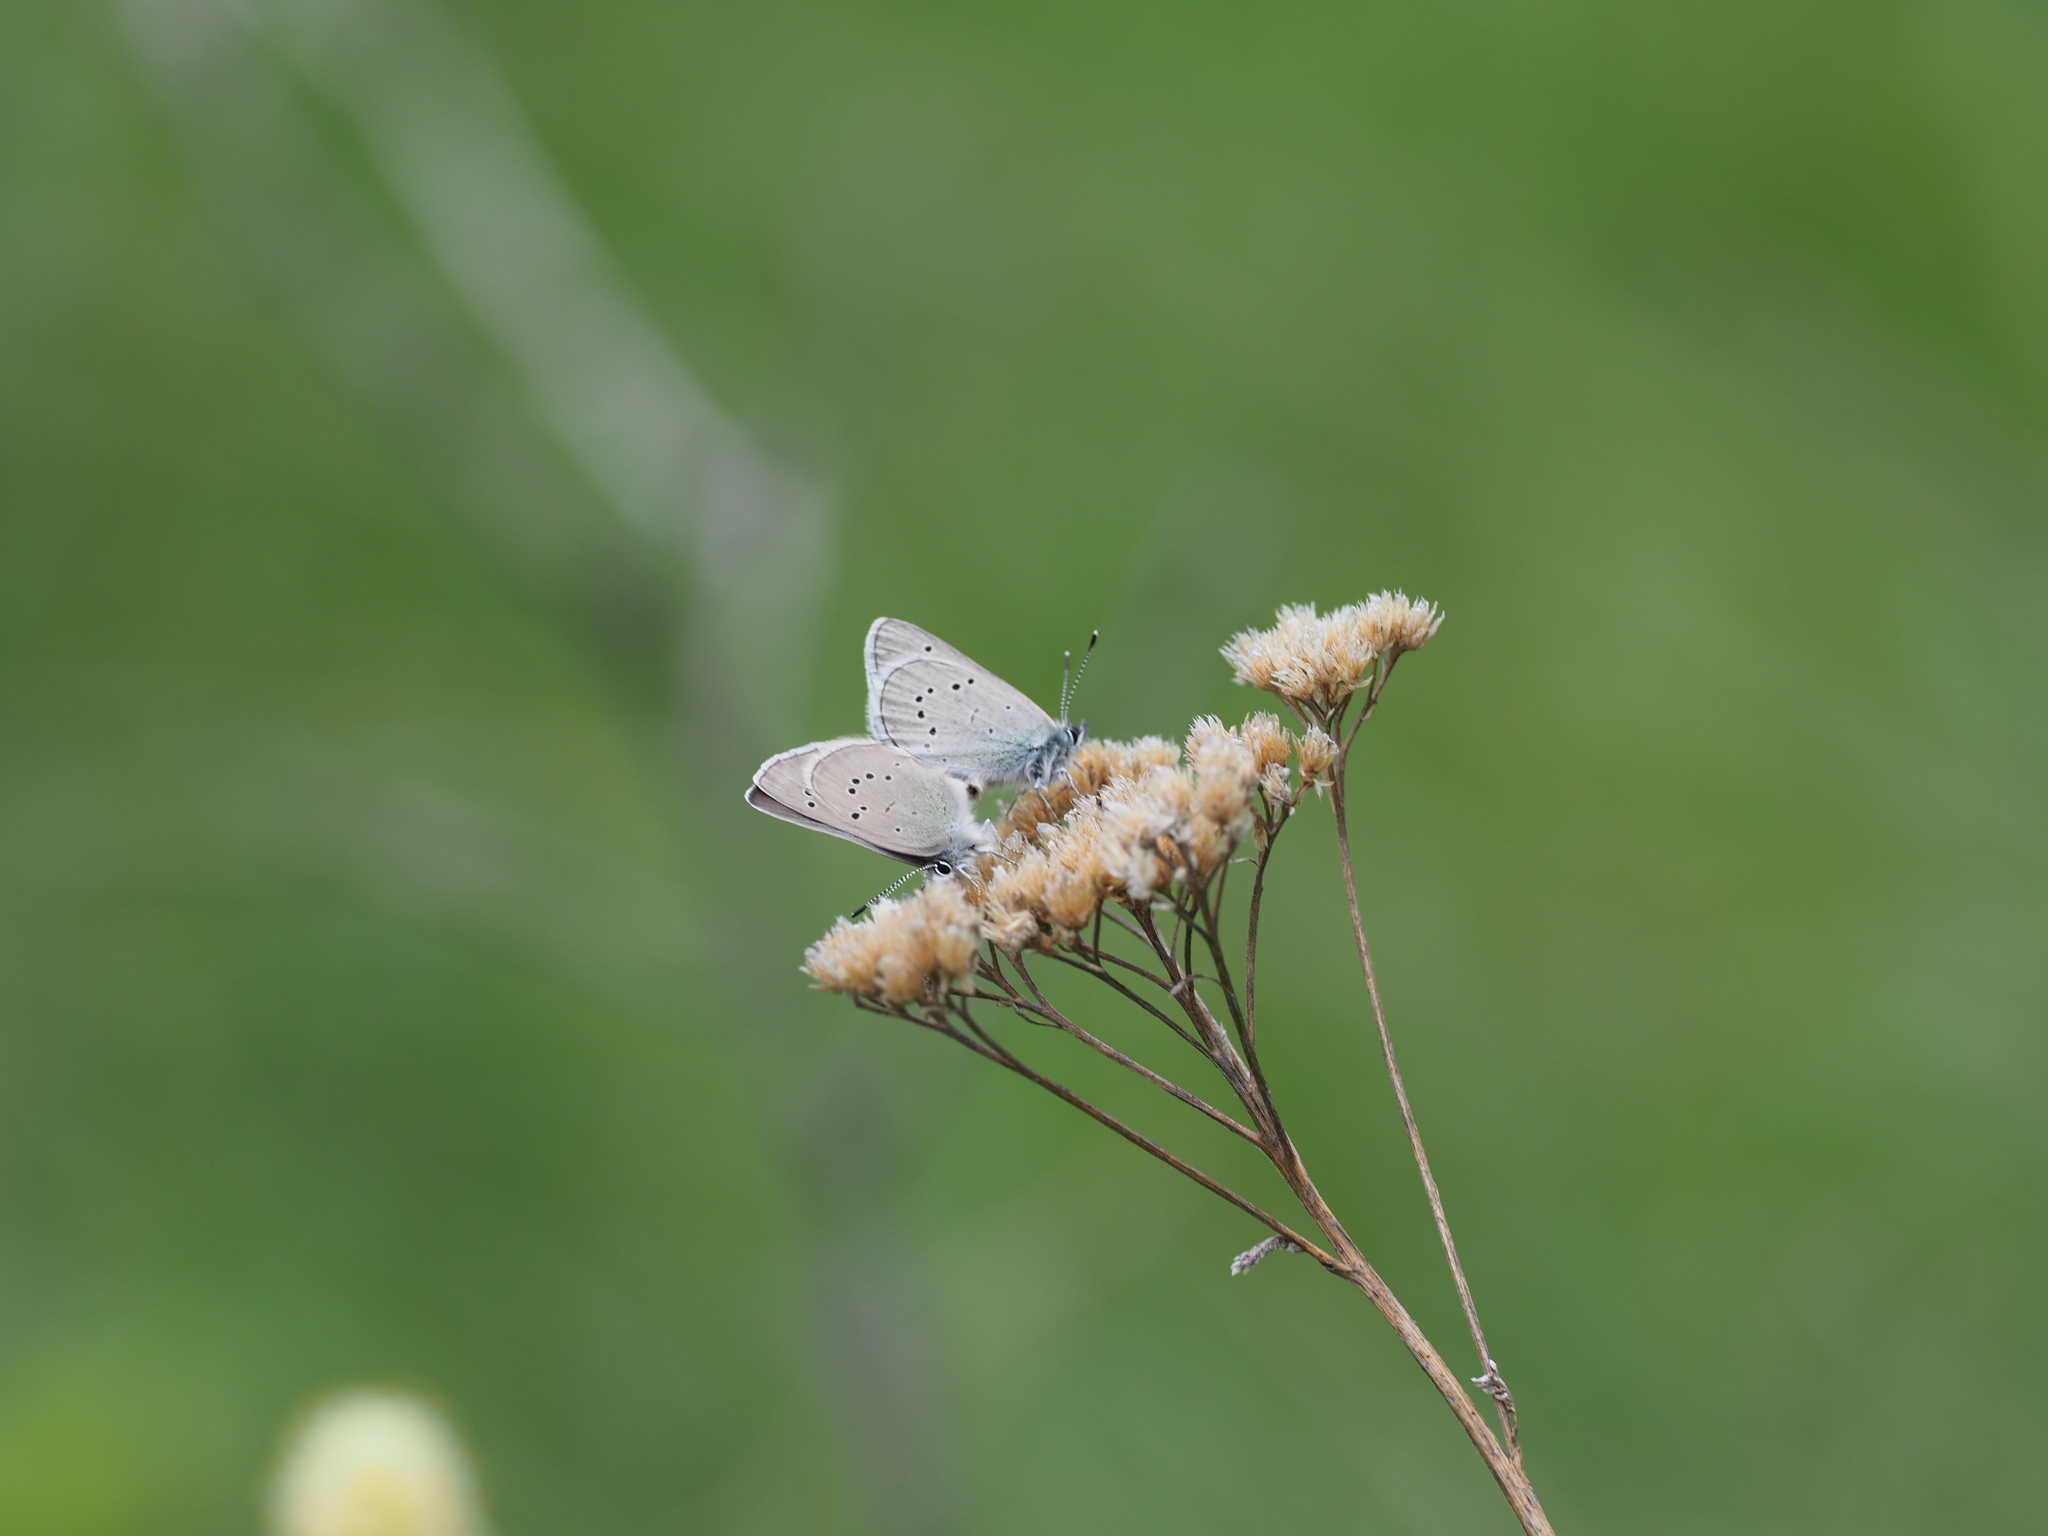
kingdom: Animalia
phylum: Arthropoda
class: Insecta
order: Lepidoptera
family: Lycaenidae
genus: Glaucopsyche
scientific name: Glaucopsyche lygdamus
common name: Silvery blue
